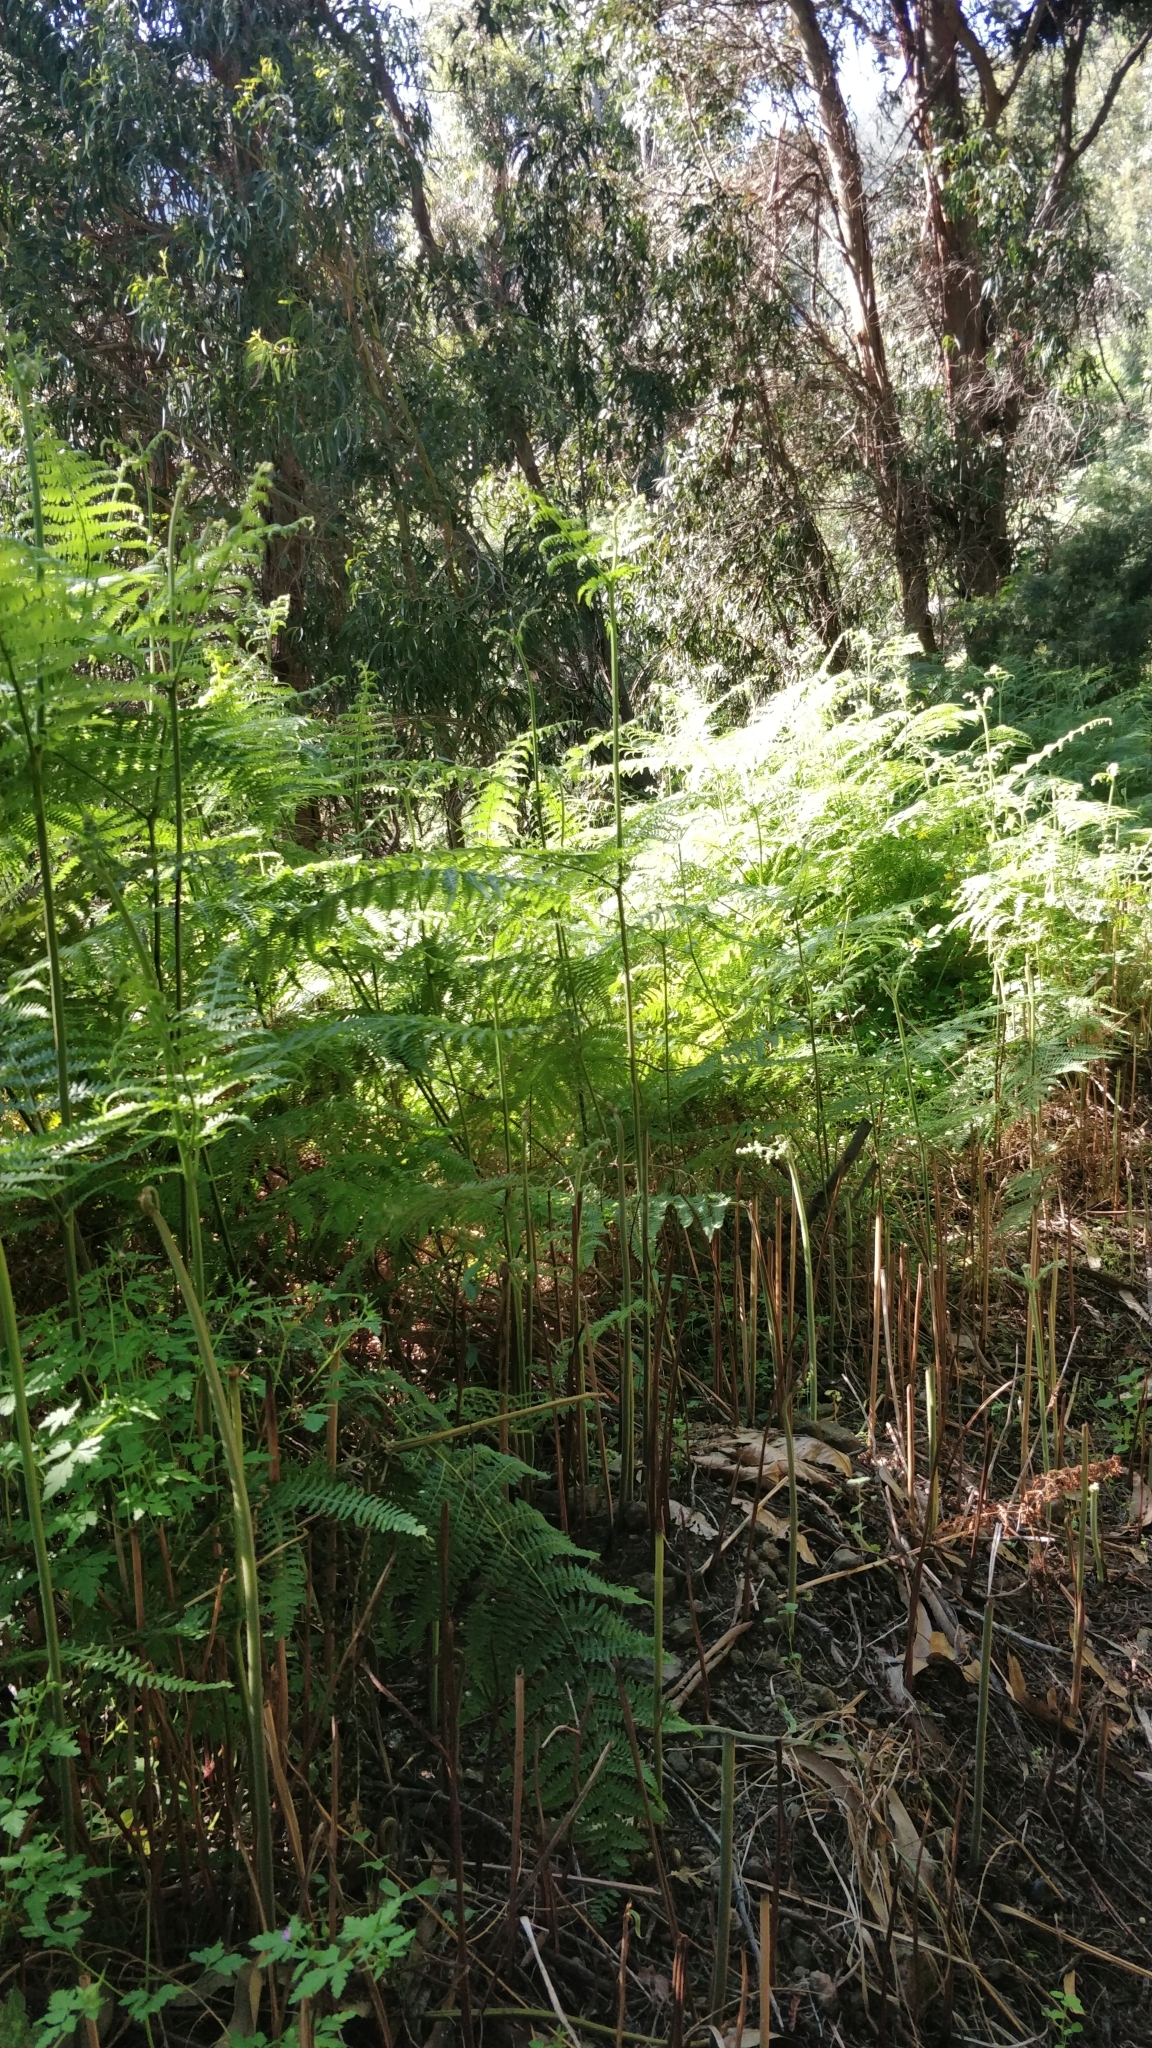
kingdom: Plantae
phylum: Tracheophyta
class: Polypodiopsida
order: Polypodiales
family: Dennstaedtiaceae
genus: Pteridium
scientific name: Pteridium aquilinum
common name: Bracken
